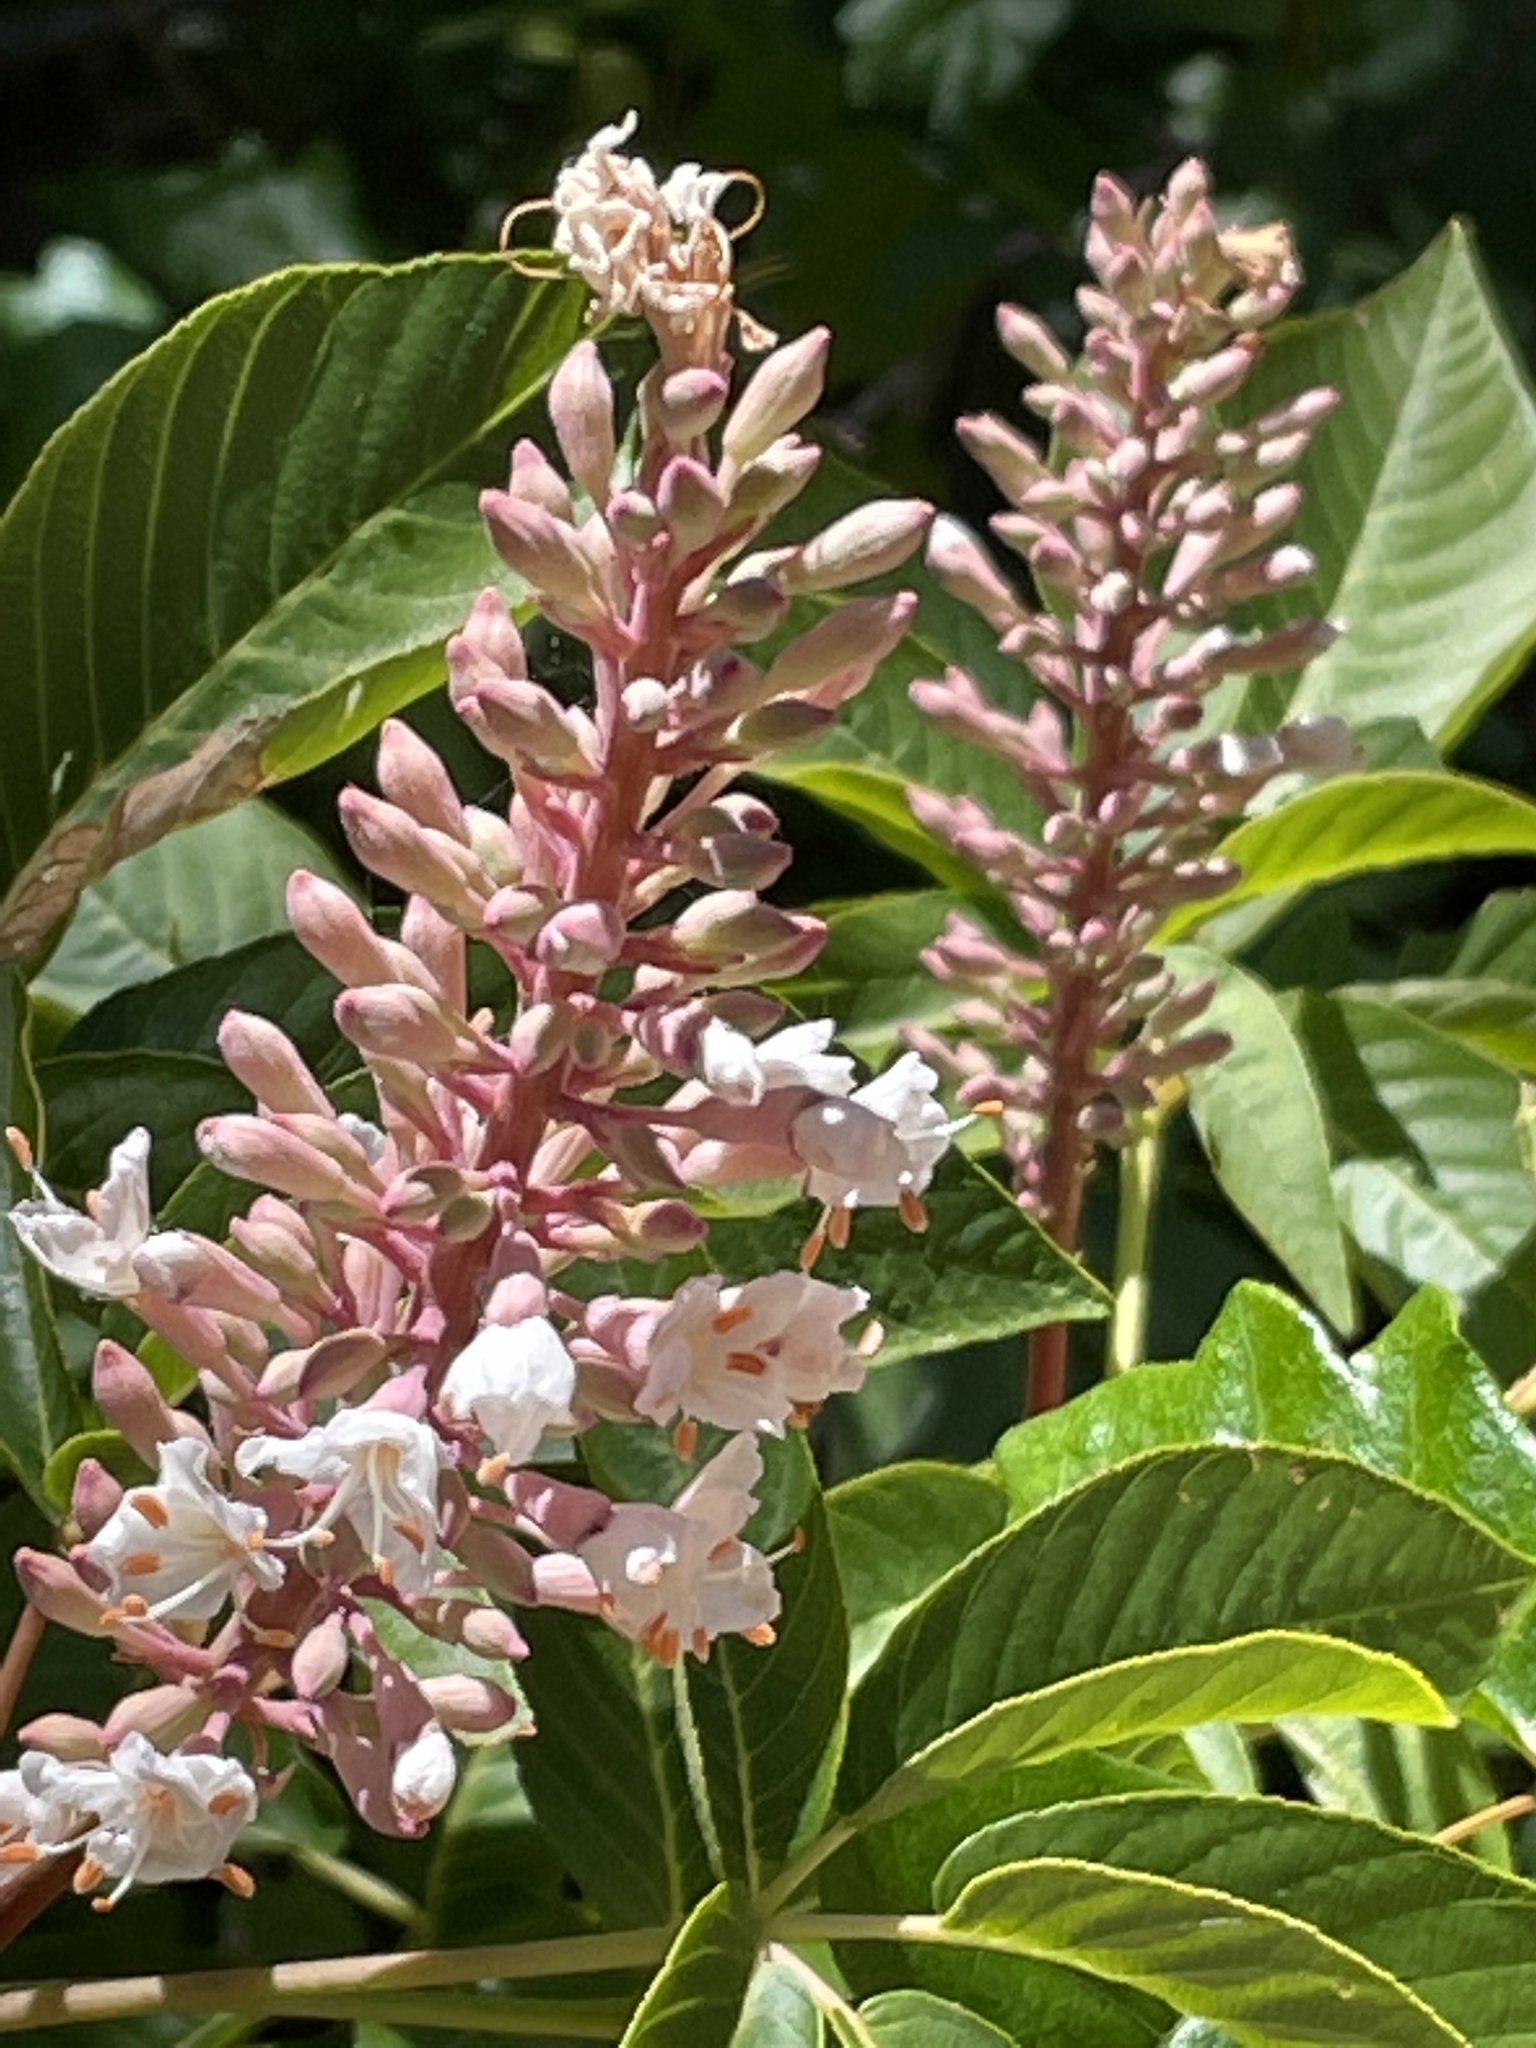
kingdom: Plantae
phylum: Tracheophyta
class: Magnoliopsida
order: Sapindales
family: Sapindaceae
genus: Aesculus
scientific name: Aesculus californica
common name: California buckeye
